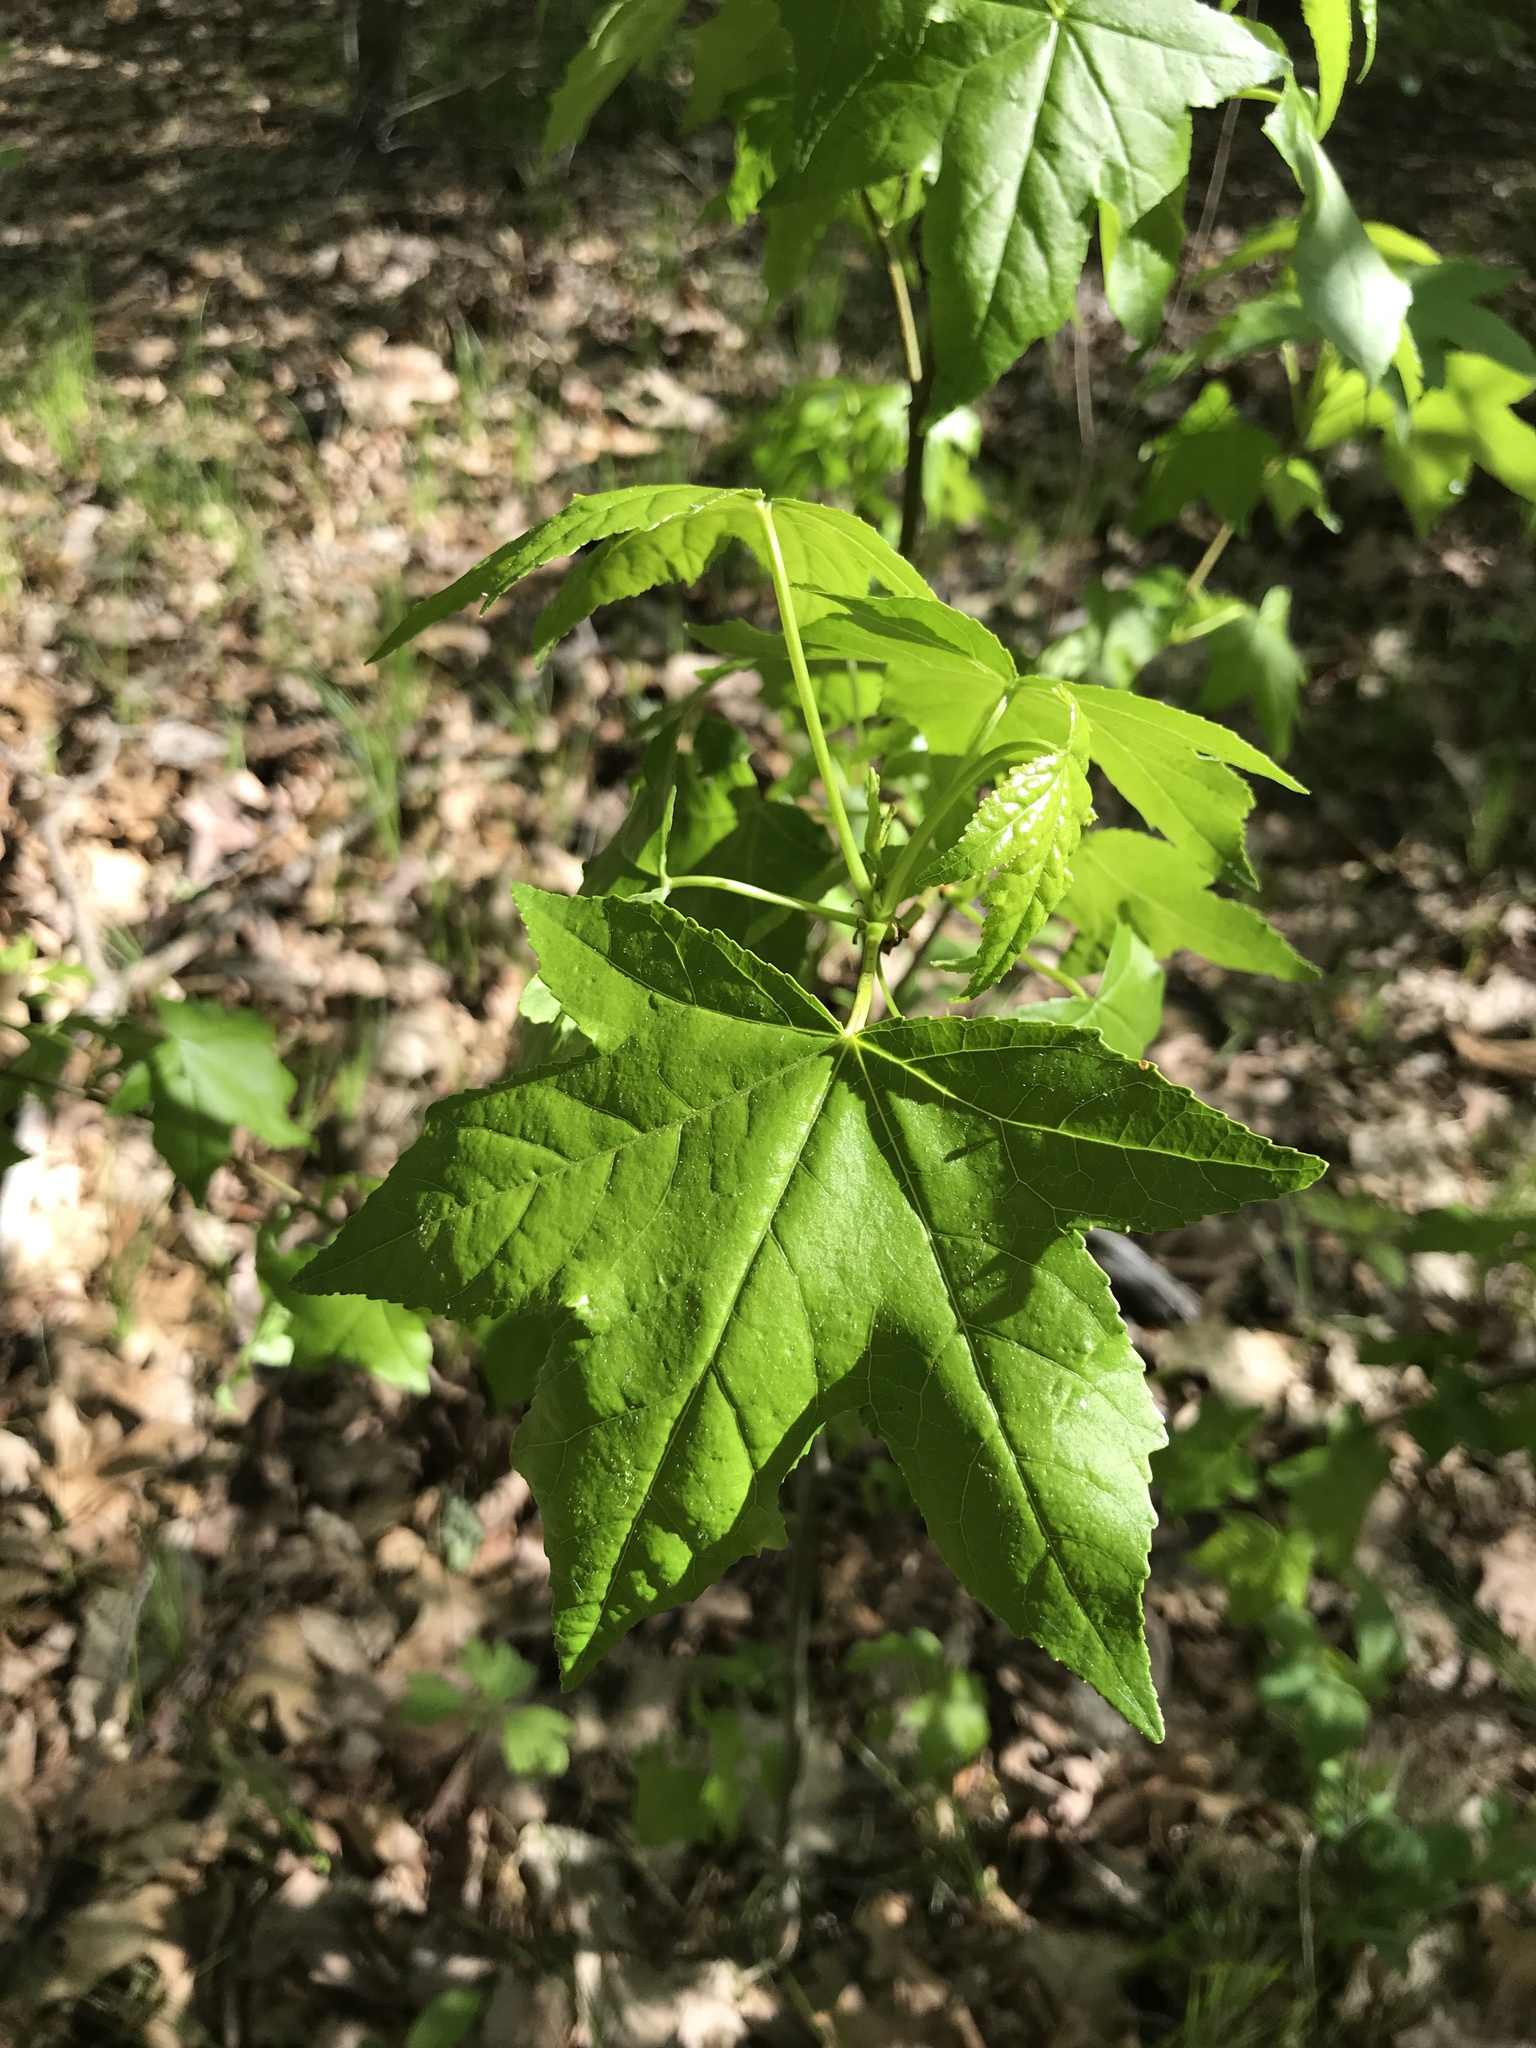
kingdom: Plantae
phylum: Tracheophyta
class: Magnoliopsida
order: Saxifragales
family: Altingiaceae
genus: Liquidambar
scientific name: Liquidambar styraciflua
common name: Sweet gum
